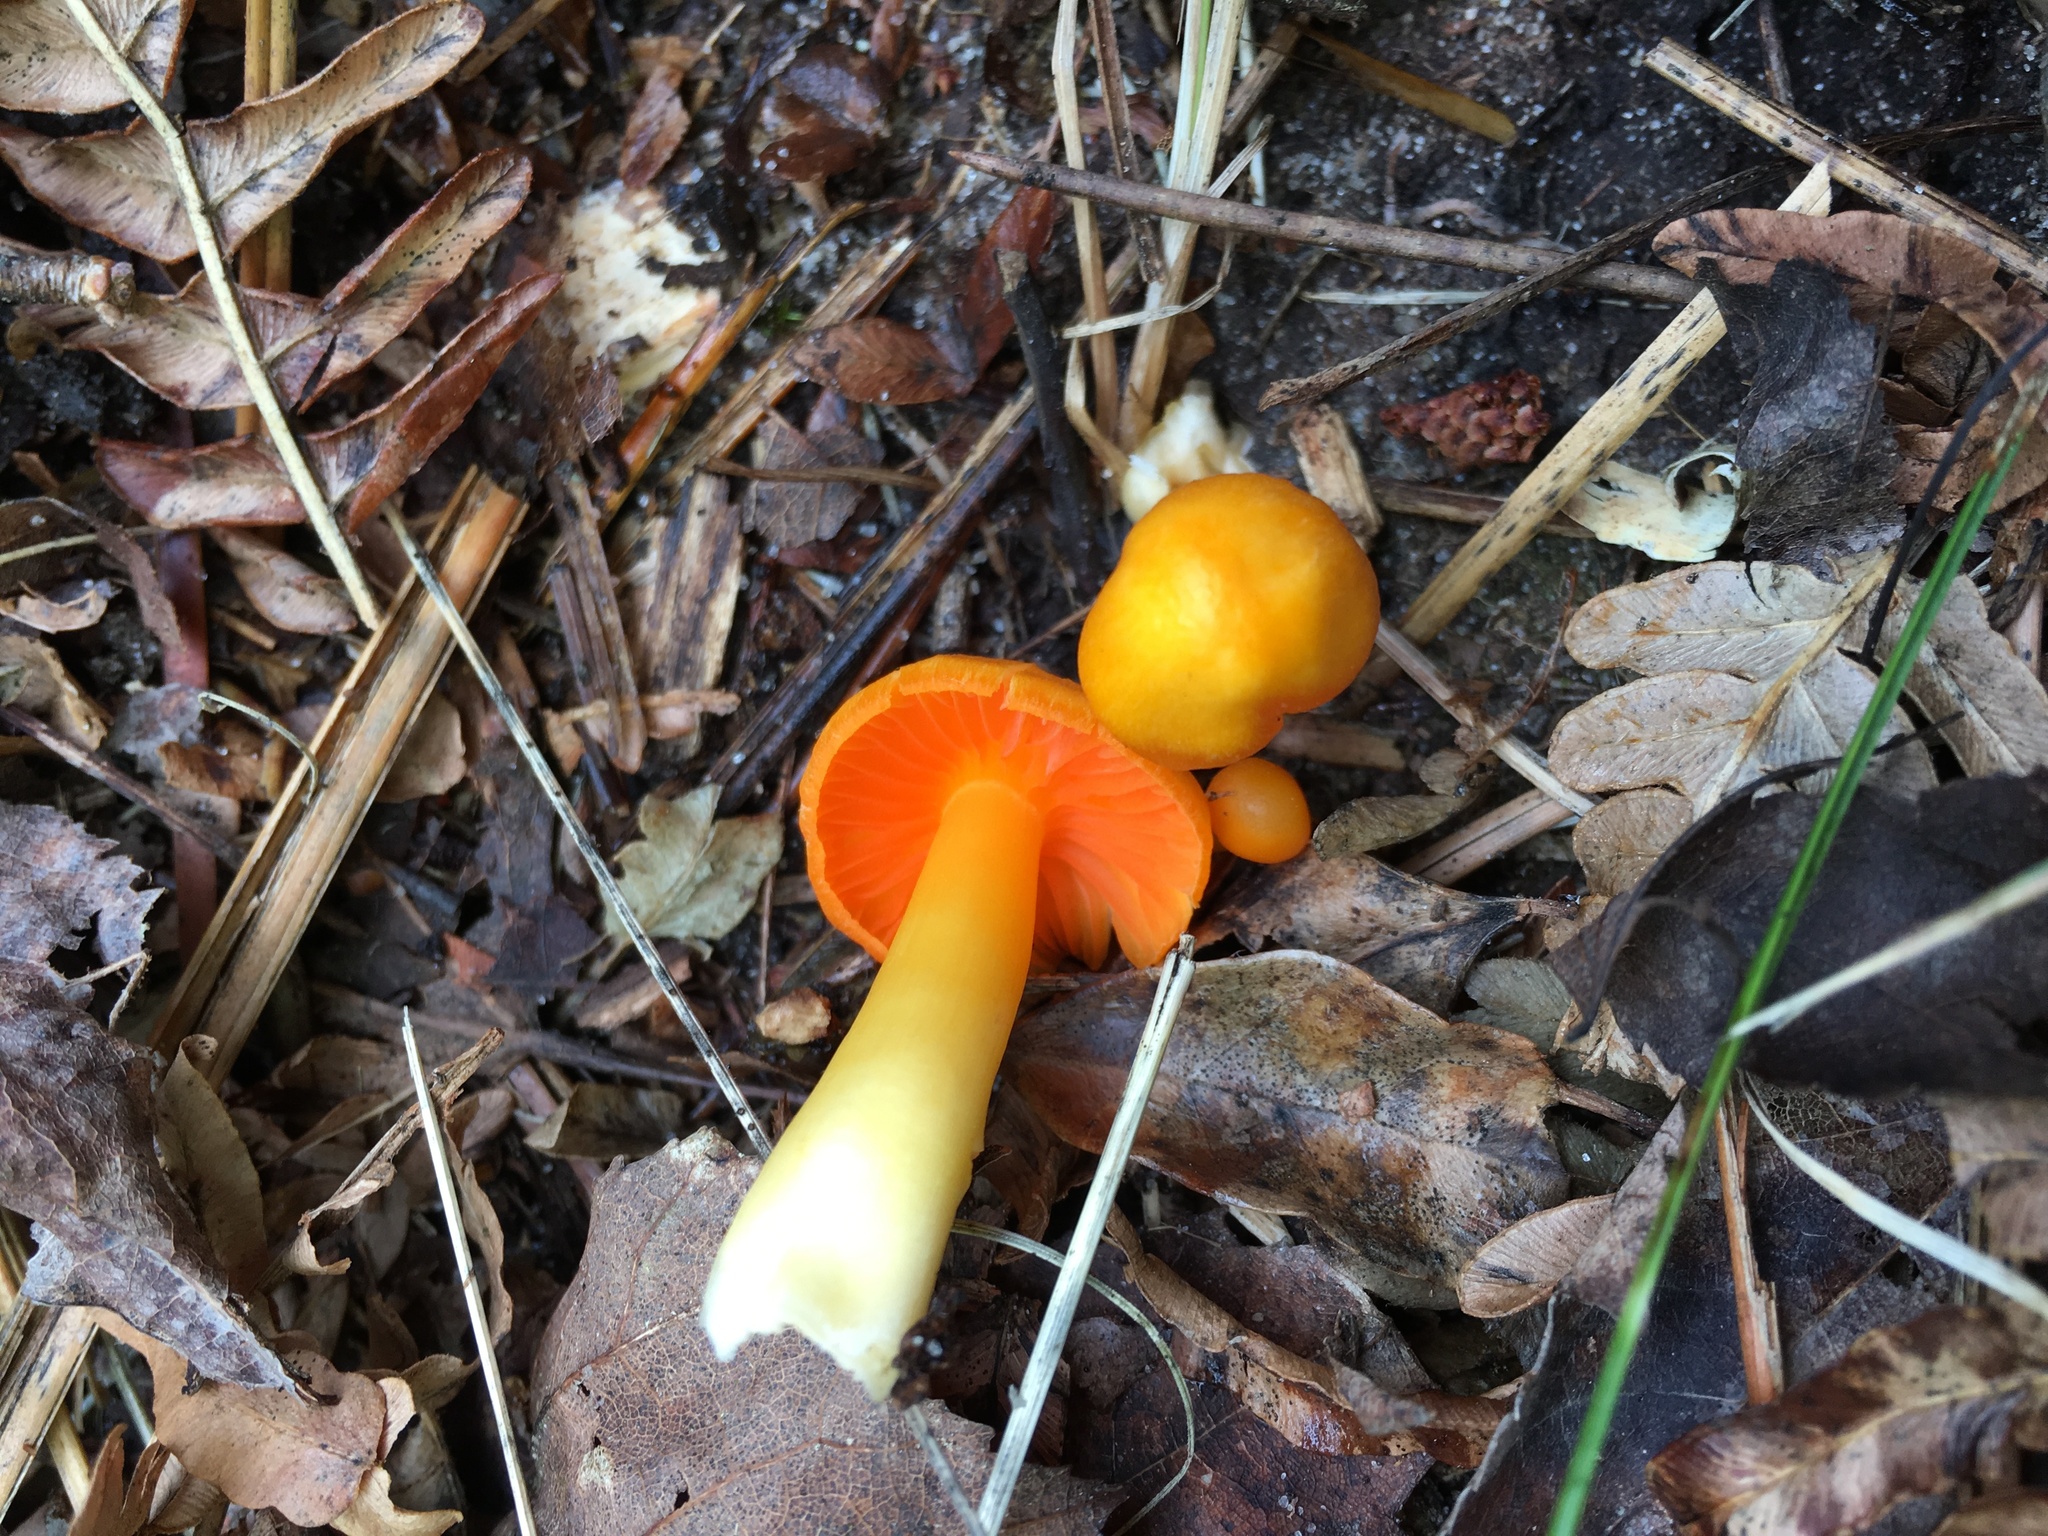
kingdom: Fungi
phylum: Basidiomycota
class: Agaricomycetes
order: Agaricales
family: Hygrophoraceae
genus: Humidicutis
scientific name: Humidicutis marginata
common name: Orange gilled waxcap
